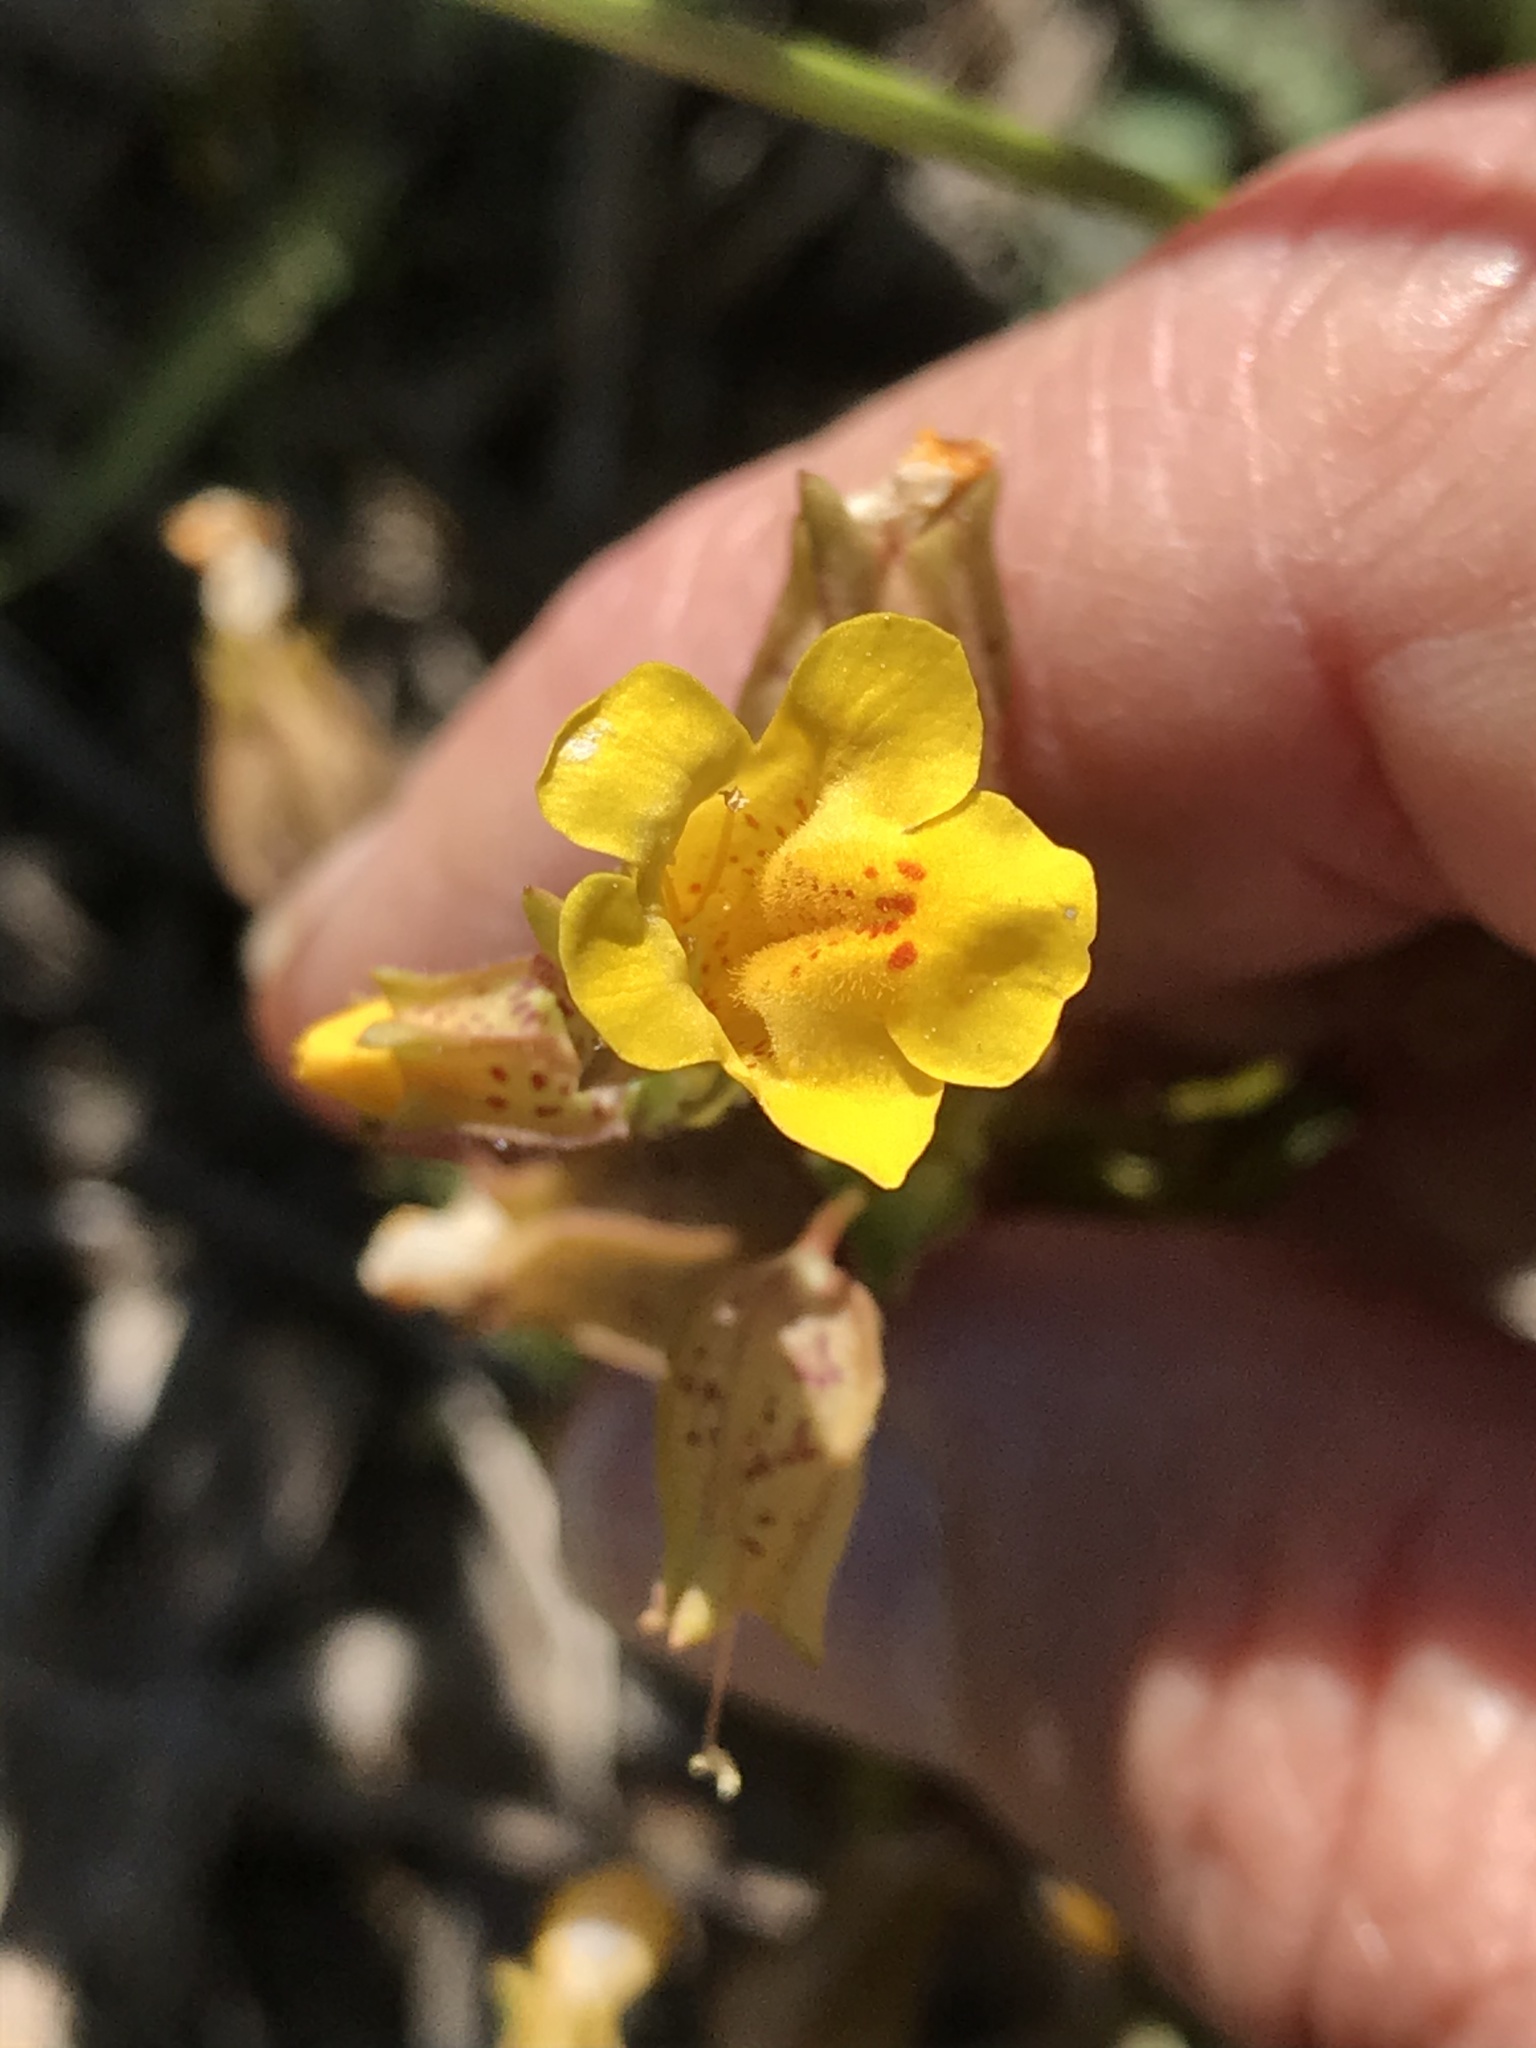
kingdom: Plantae
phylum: Tracheophyta
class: Magnoliopsida
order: Lamiales
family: Phrymaceae
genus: Erythranthe
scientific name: Erythranthe arvensis
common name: Field monkeyflower
